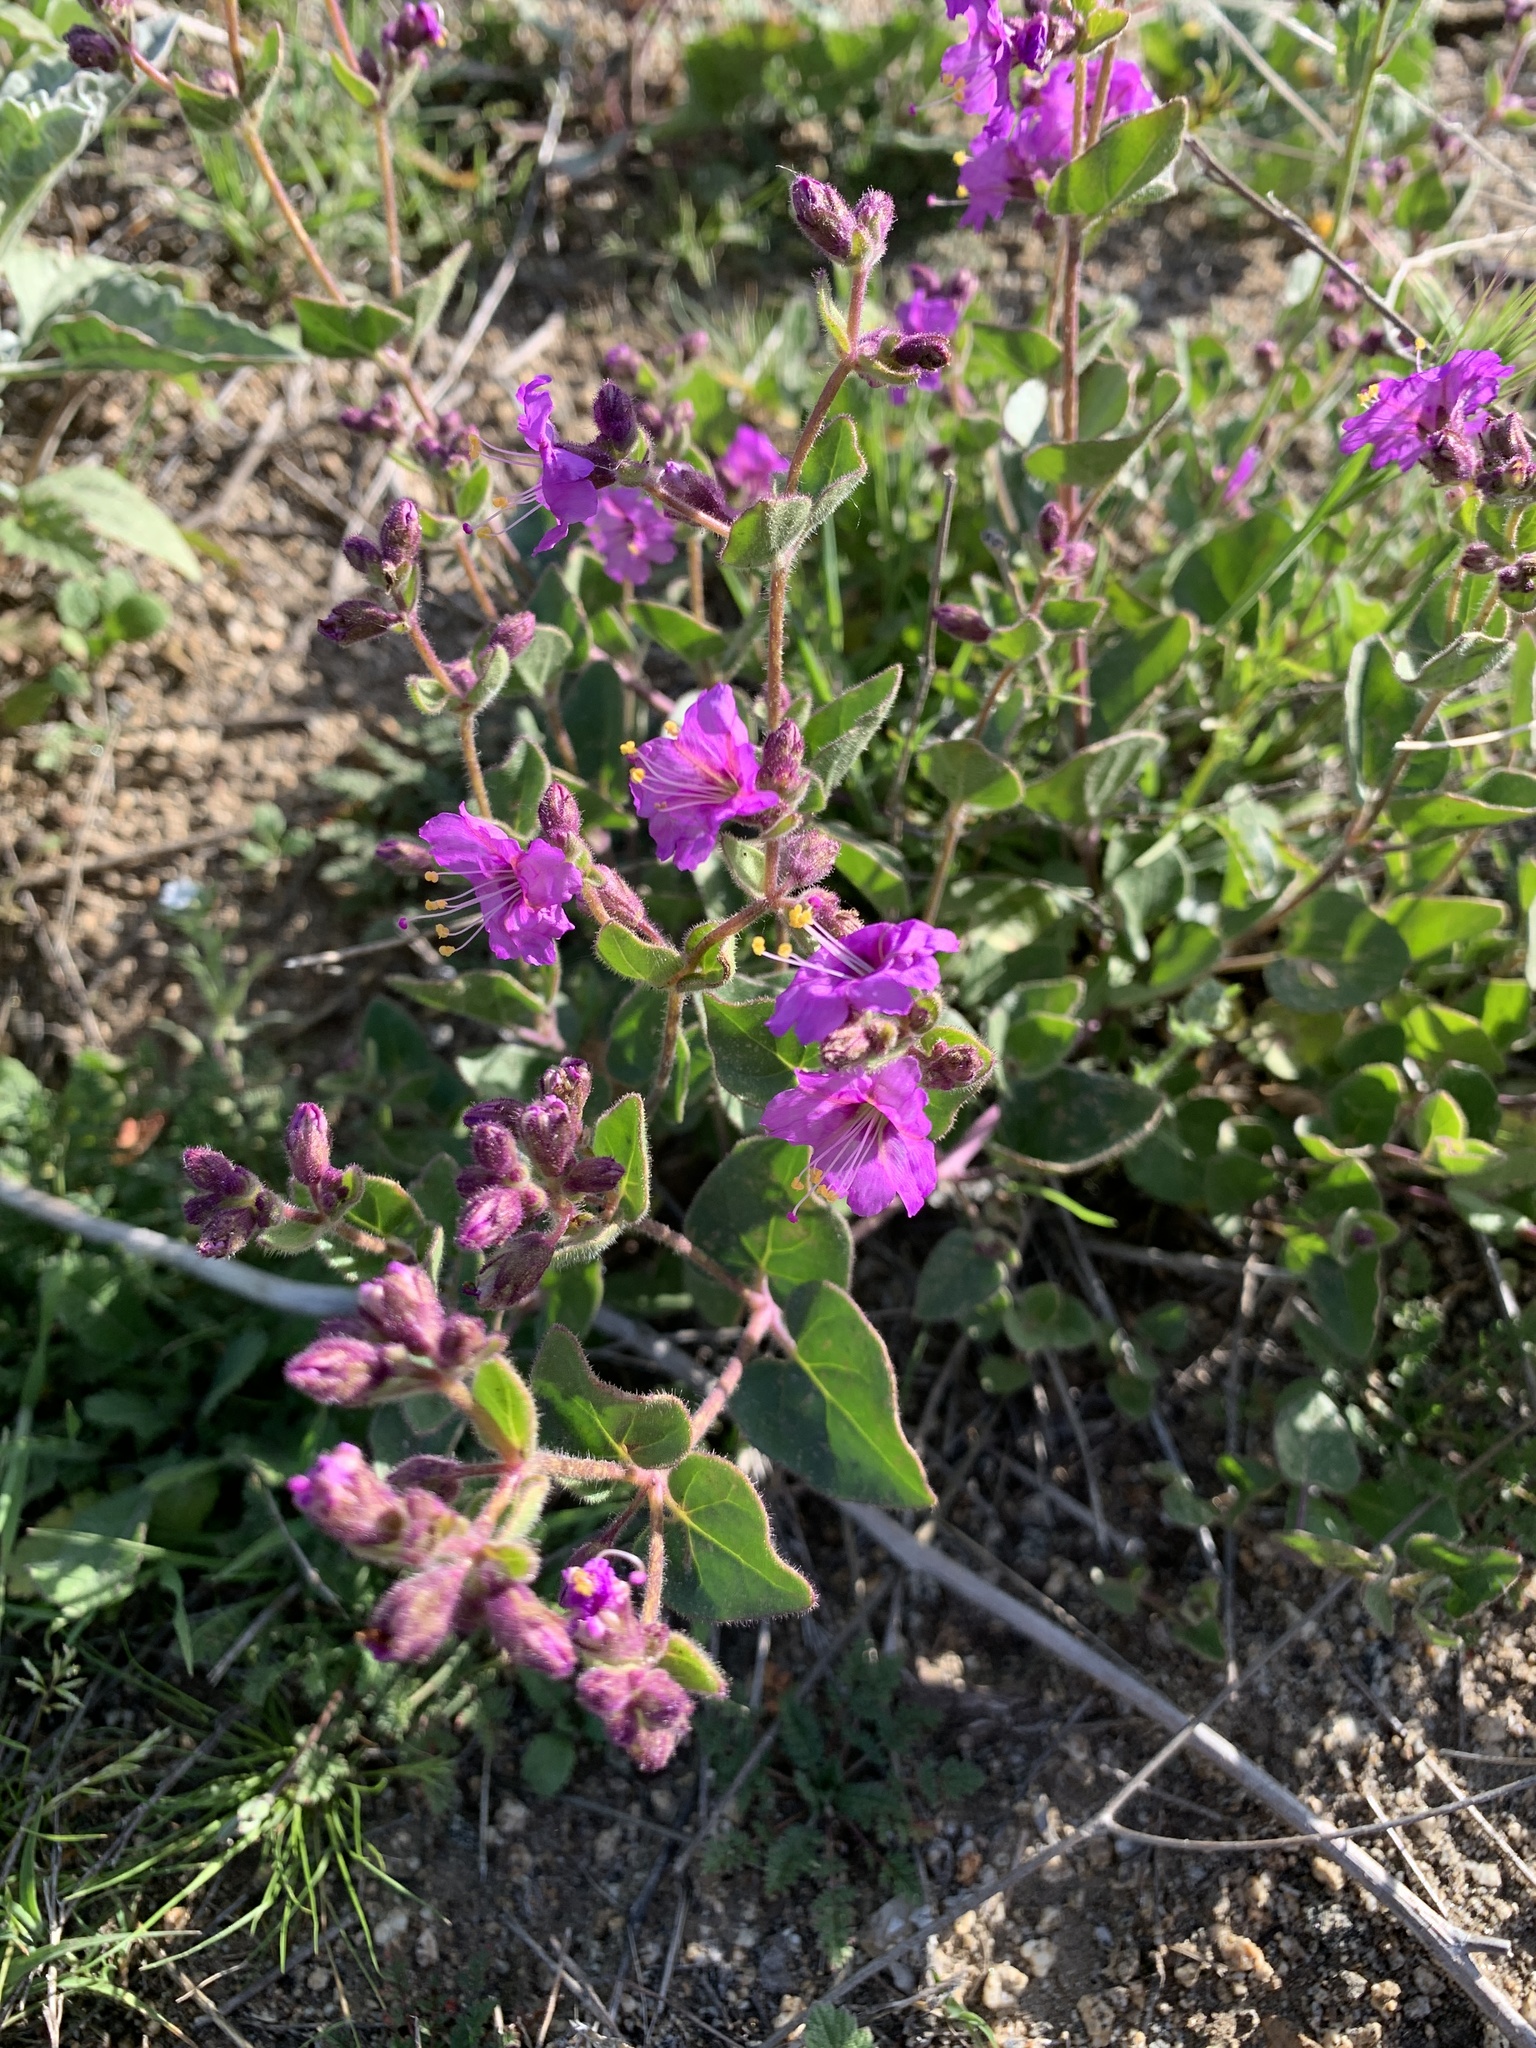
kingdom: Plantae
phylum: Tracheophyta
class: Magnoliopsida
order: Caryophyllales
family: Nyctaginaceae
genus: Mirabilis
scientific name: Mirabilis laevis
